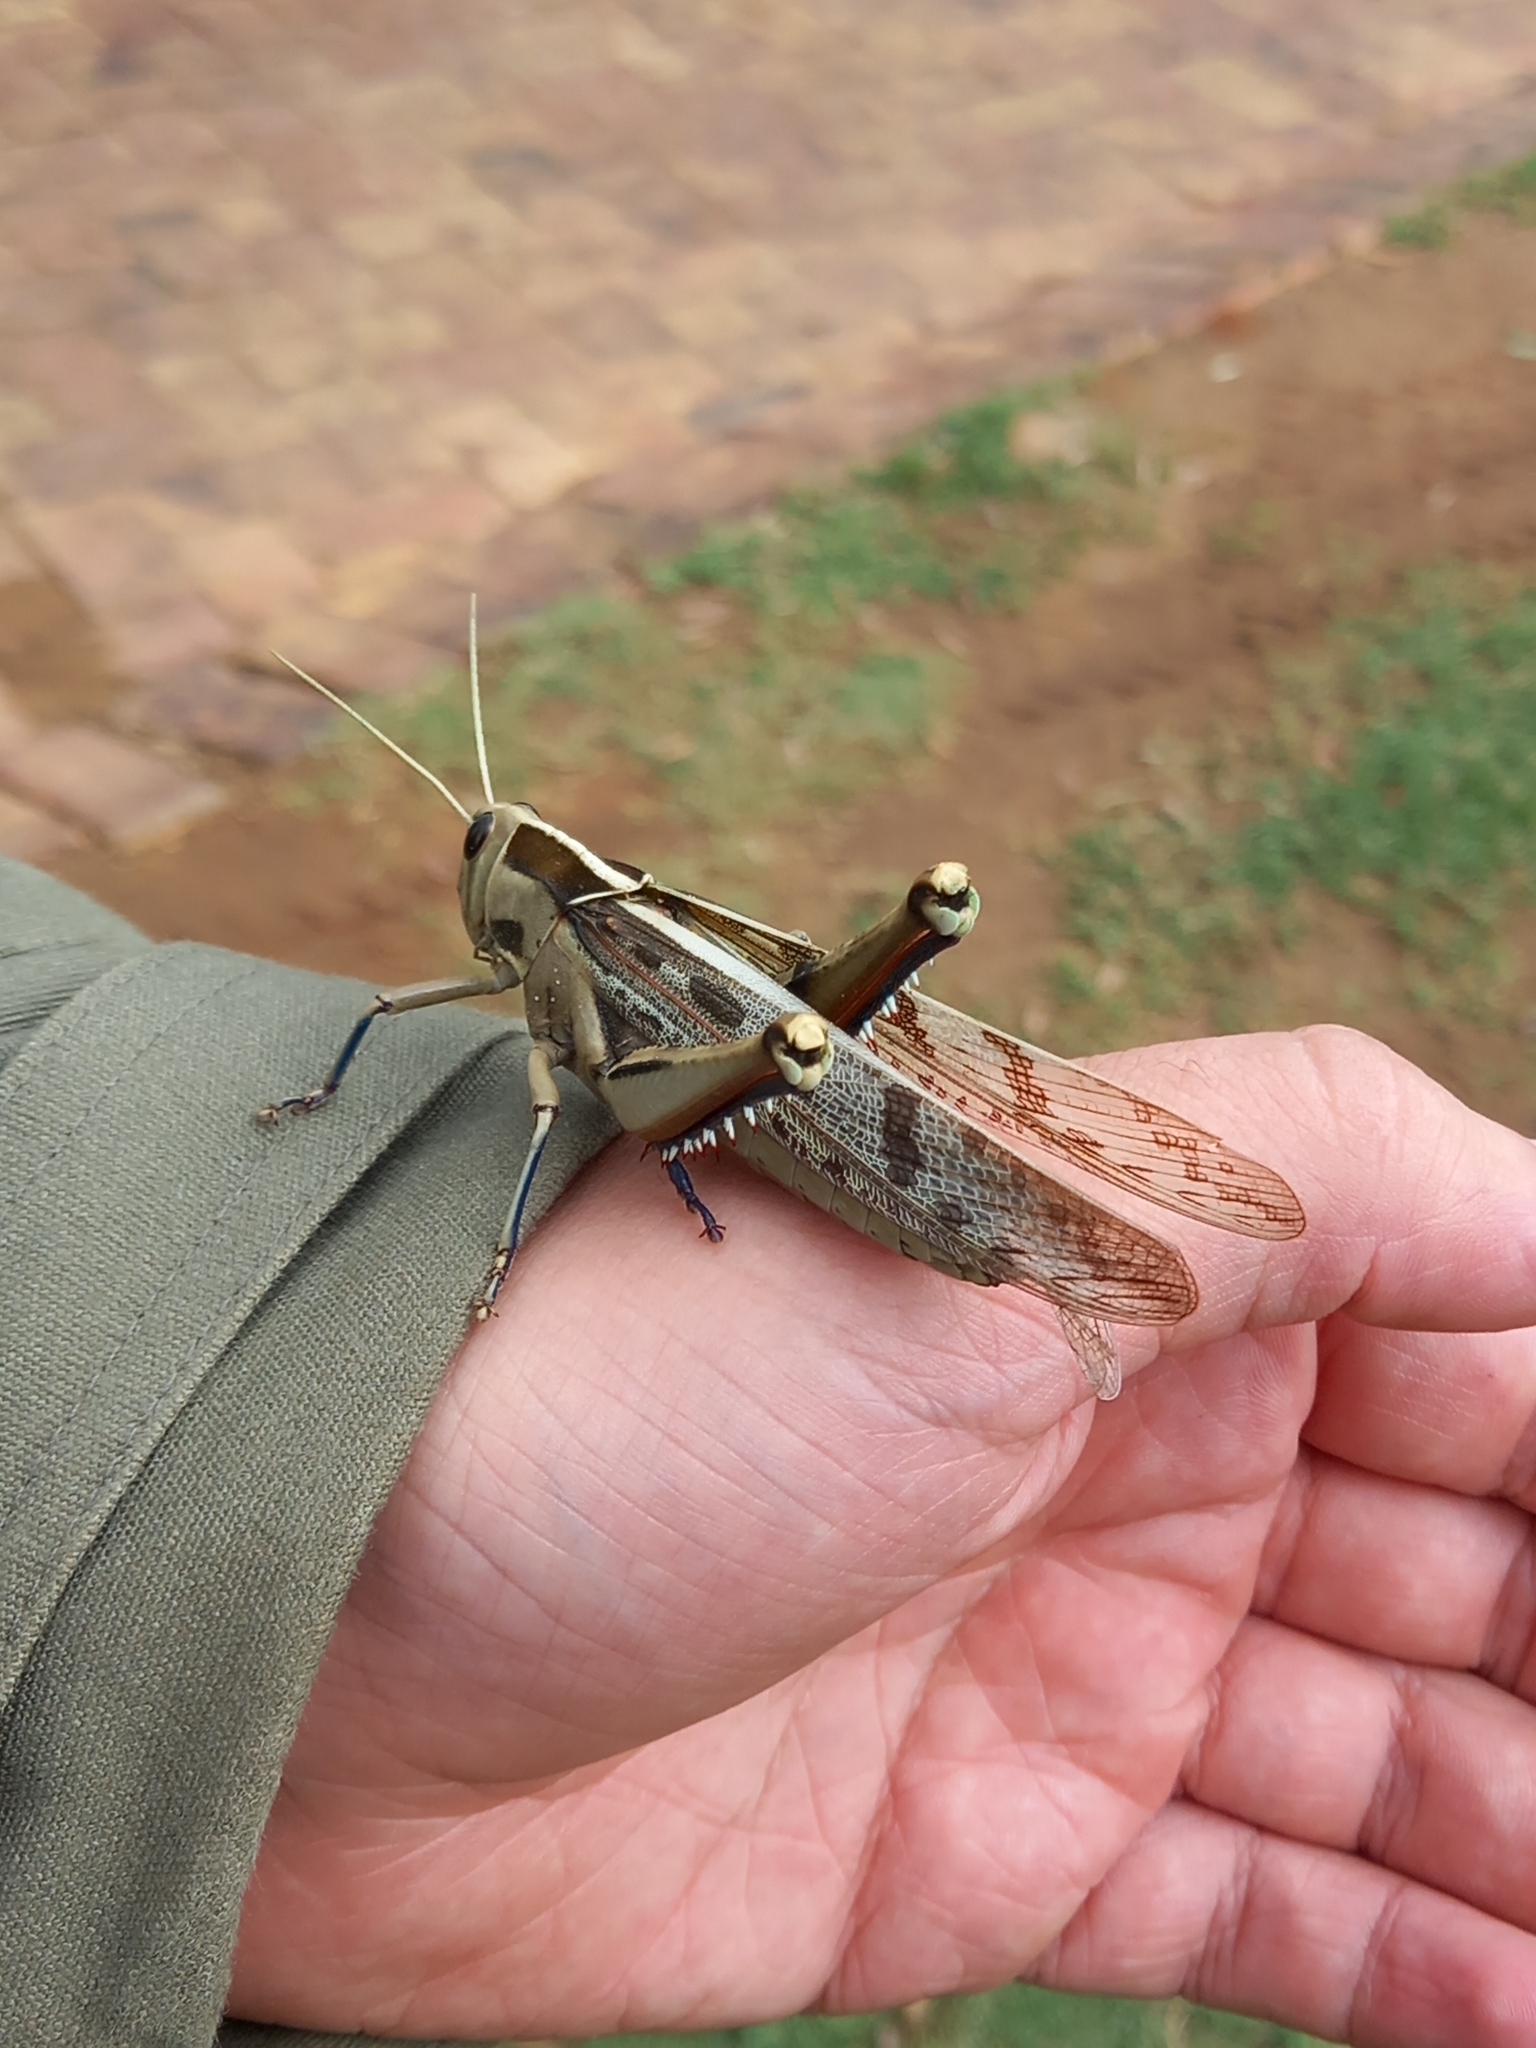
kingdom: Animalia
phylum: Arthropoda
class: Insecta
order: Orthoptera
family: Acrididae
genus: Acanthacris
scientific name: Acanthacris ruficornis
